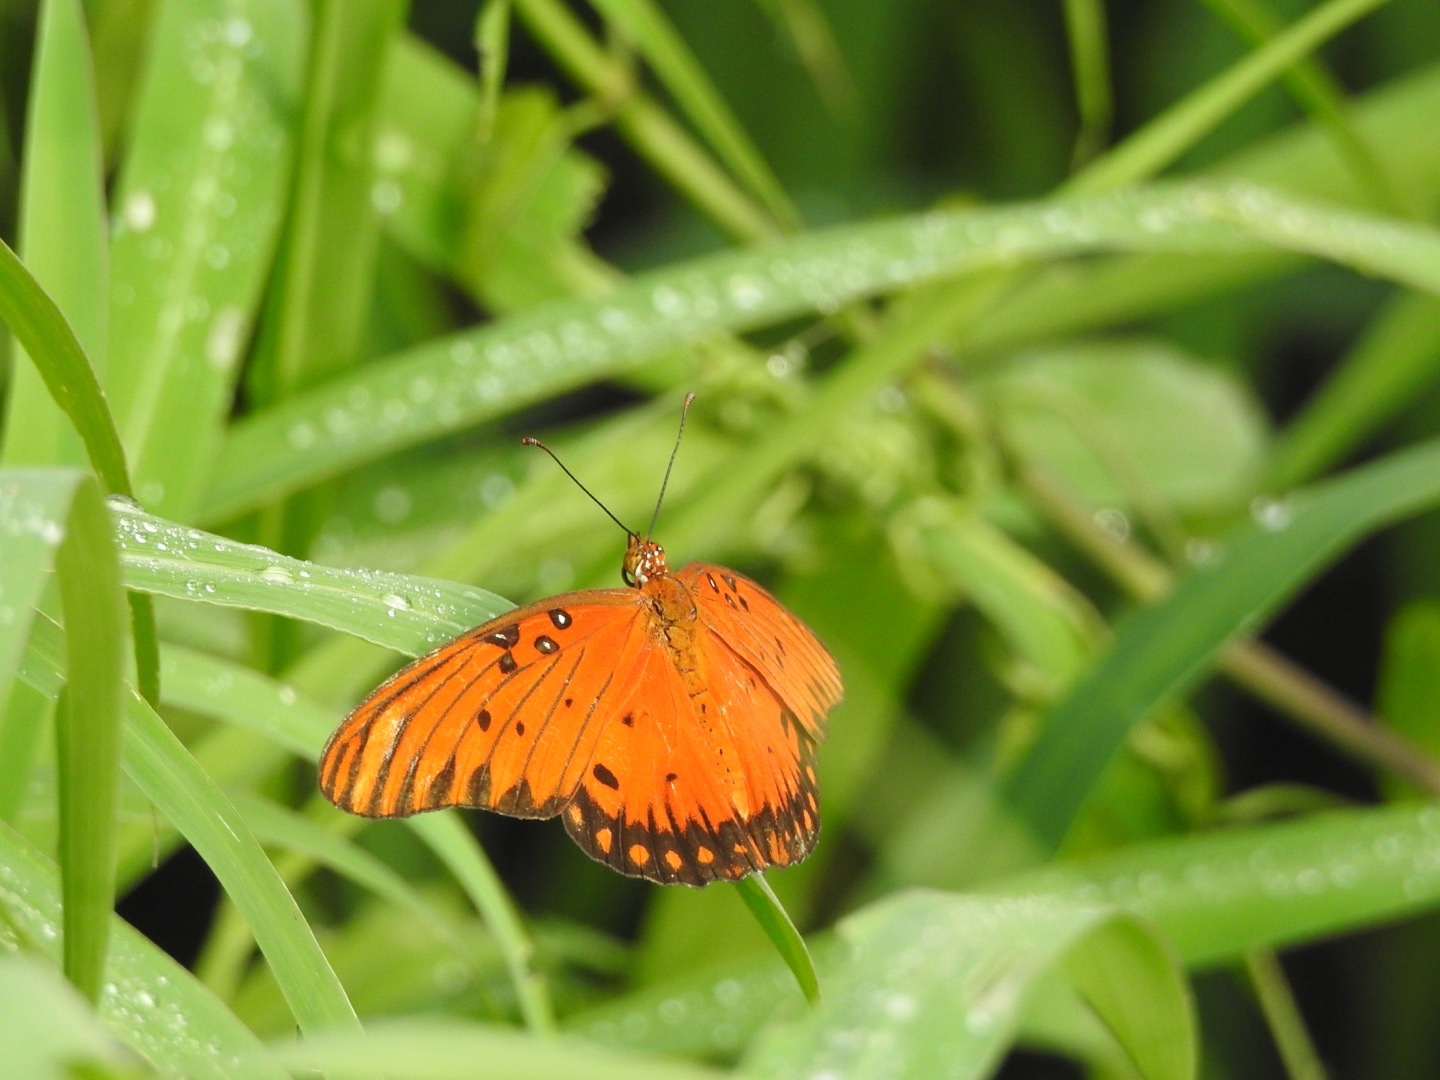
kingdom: Animalia
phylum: Arthropoda
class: Insecta
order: Lepidoptera
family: Nymphalidae
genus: Dione
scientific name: Dione vanillae
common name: Gulf fritillary
